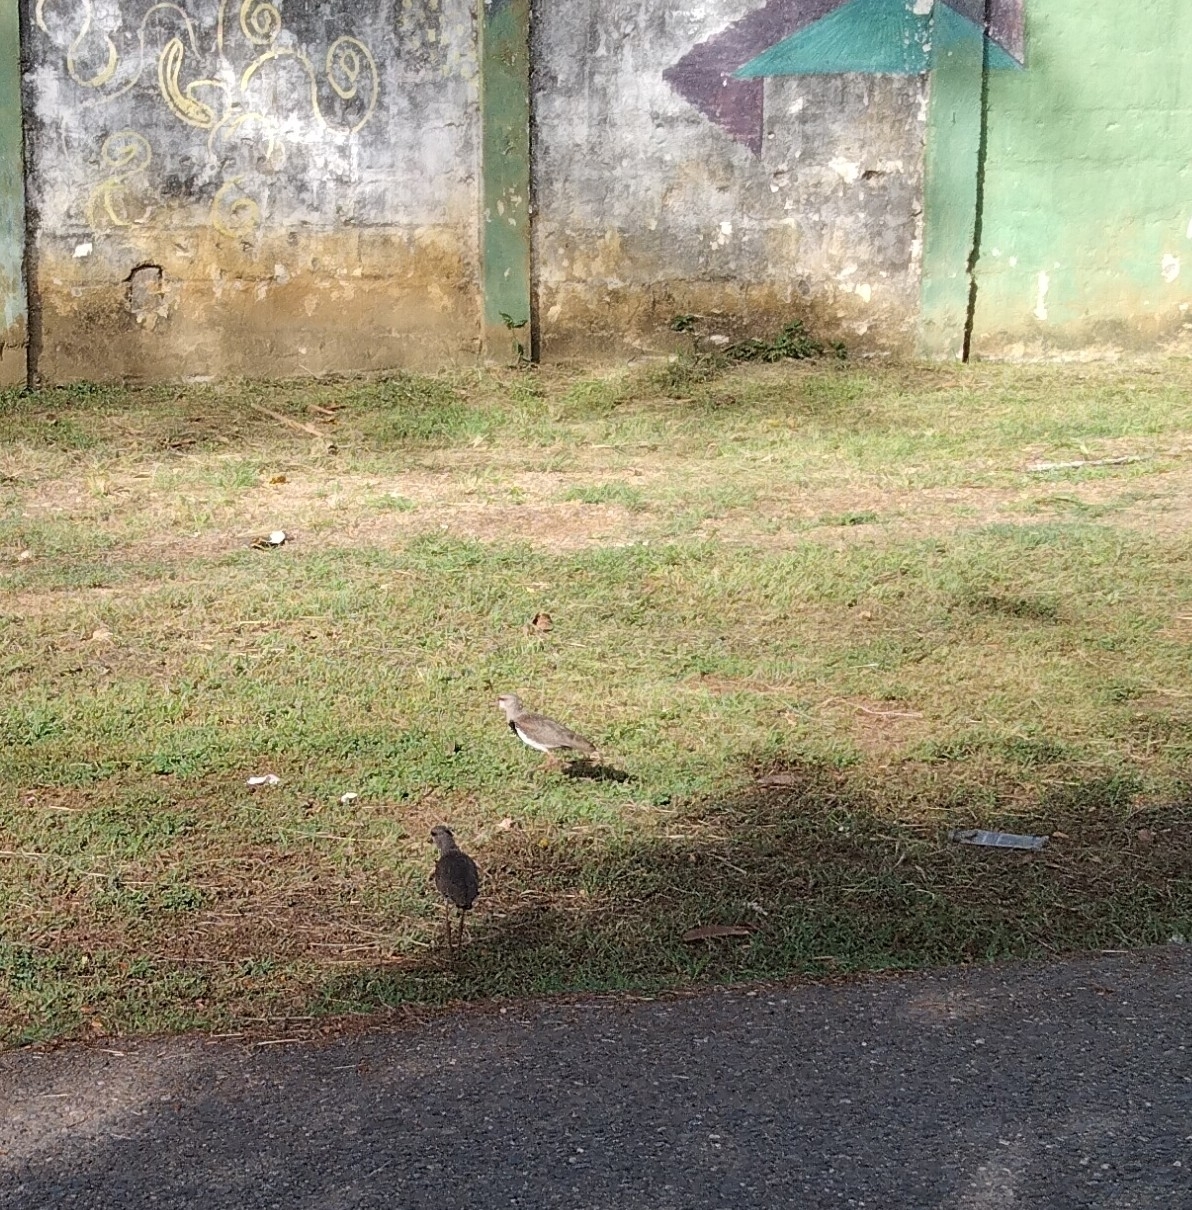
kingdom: Animalia
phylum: Chordata
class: Aves
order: Charadriiformes
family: Charadriidae
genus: Vanellus
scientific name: Vanellus chilensis
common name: Southern lapwing
